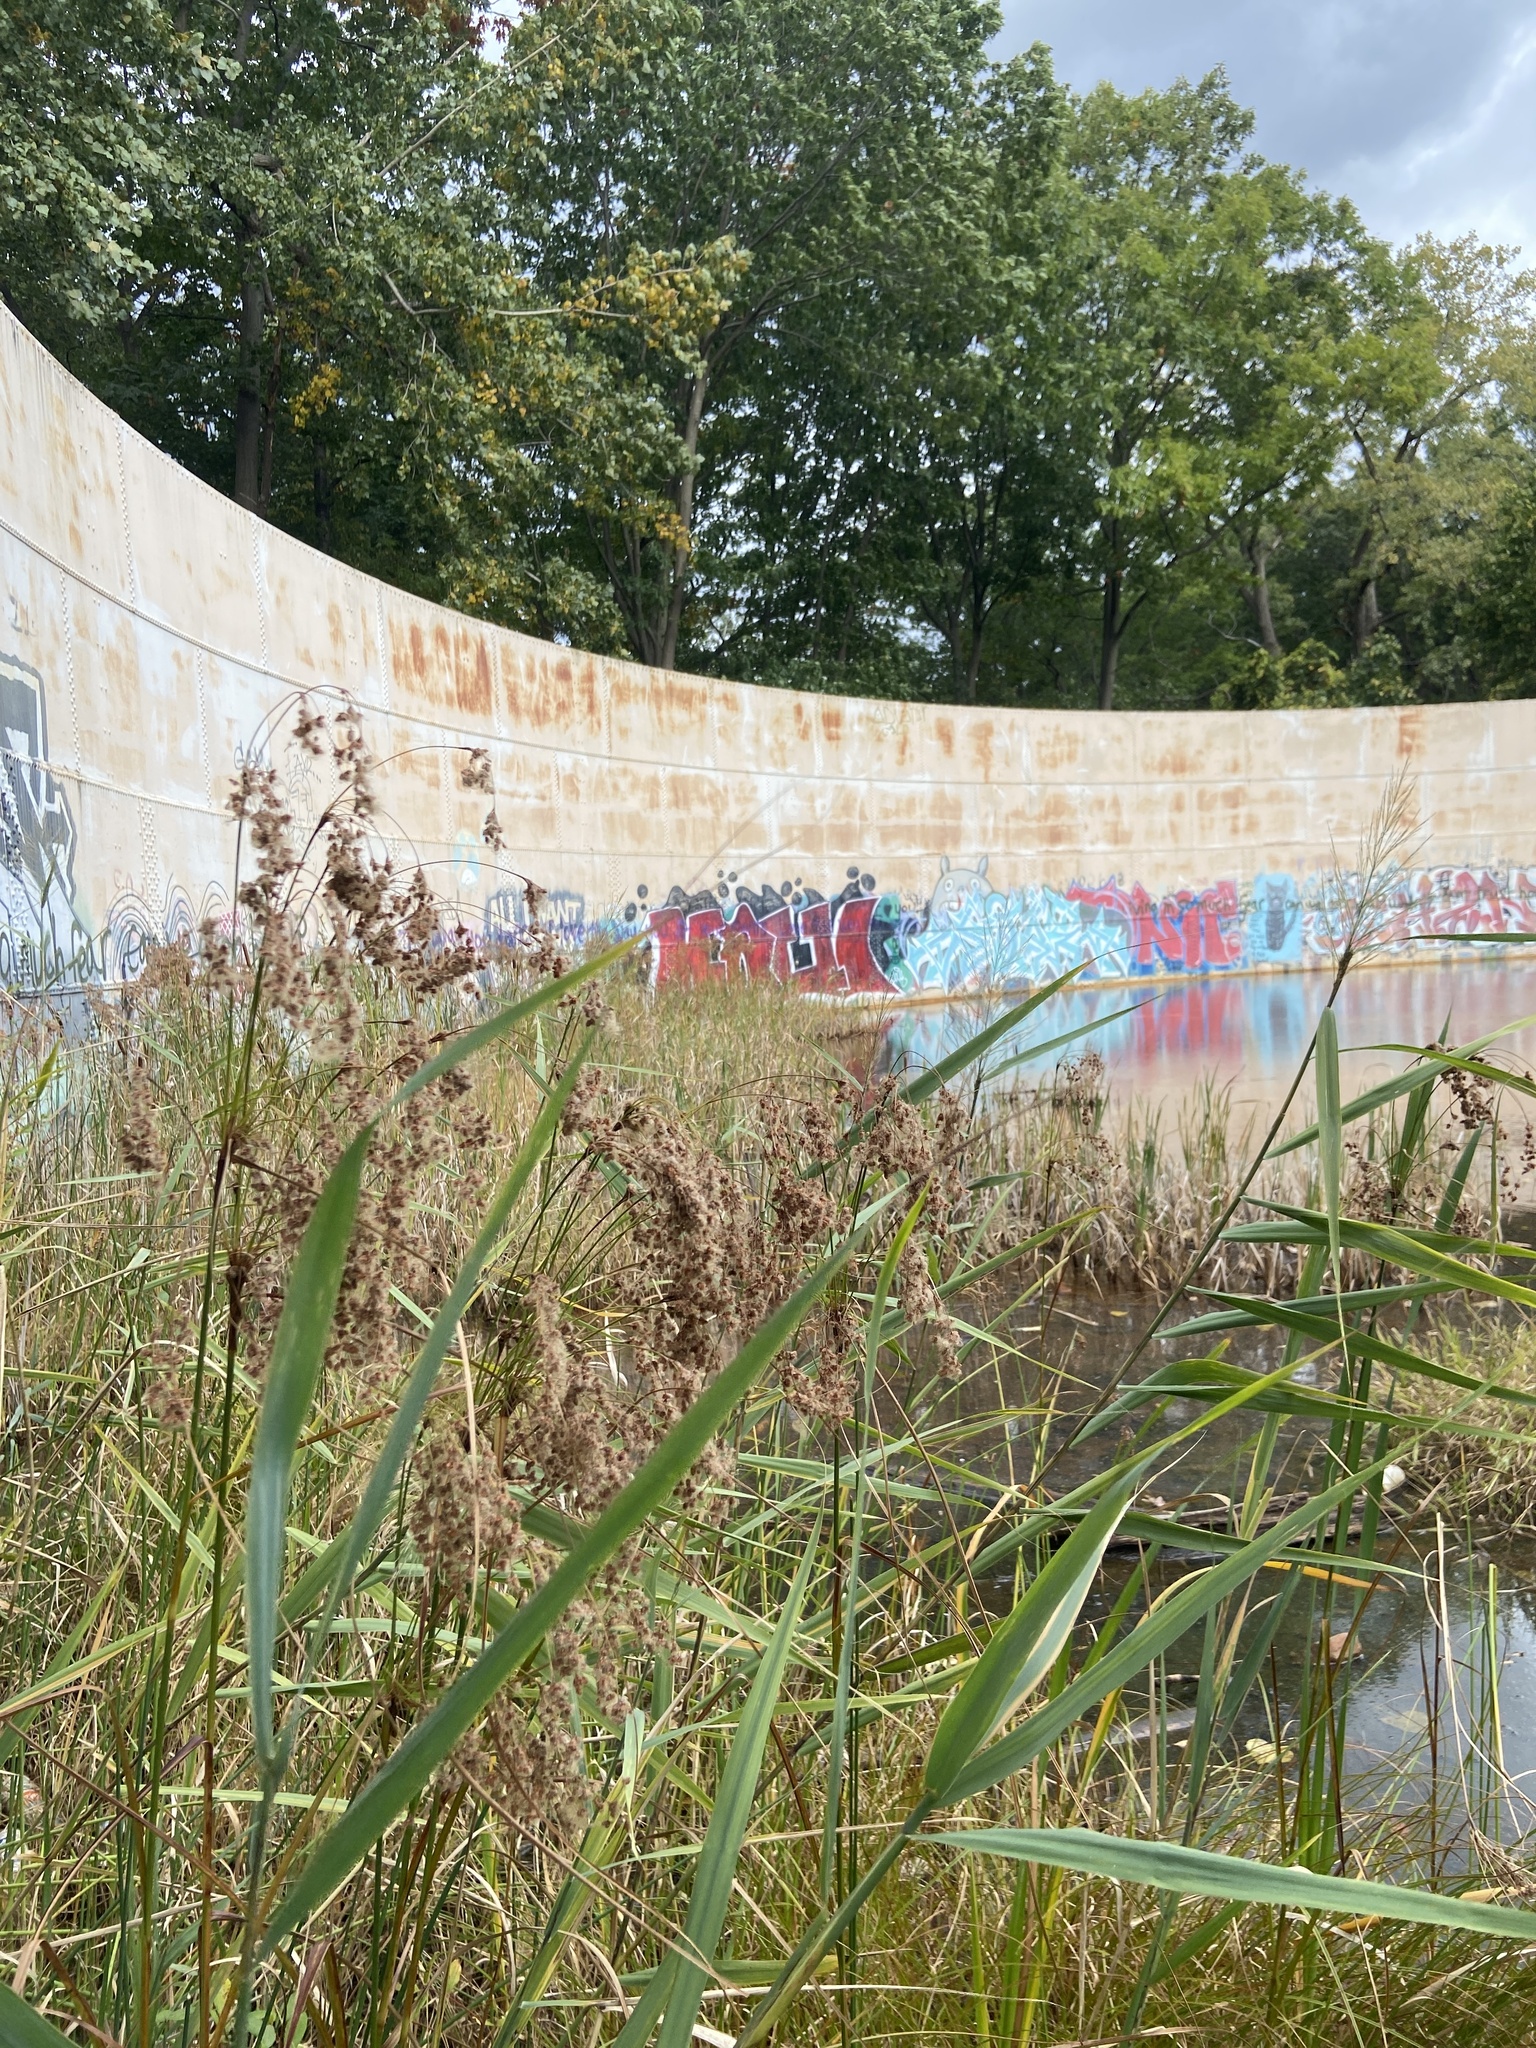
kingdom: Plantae
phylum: Tracheophyta
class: Liliopsida
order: Poales
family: Cyperaceae
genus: Scirpus
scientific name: Scirpus cyperinus
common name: Black-sheathed bulrush
